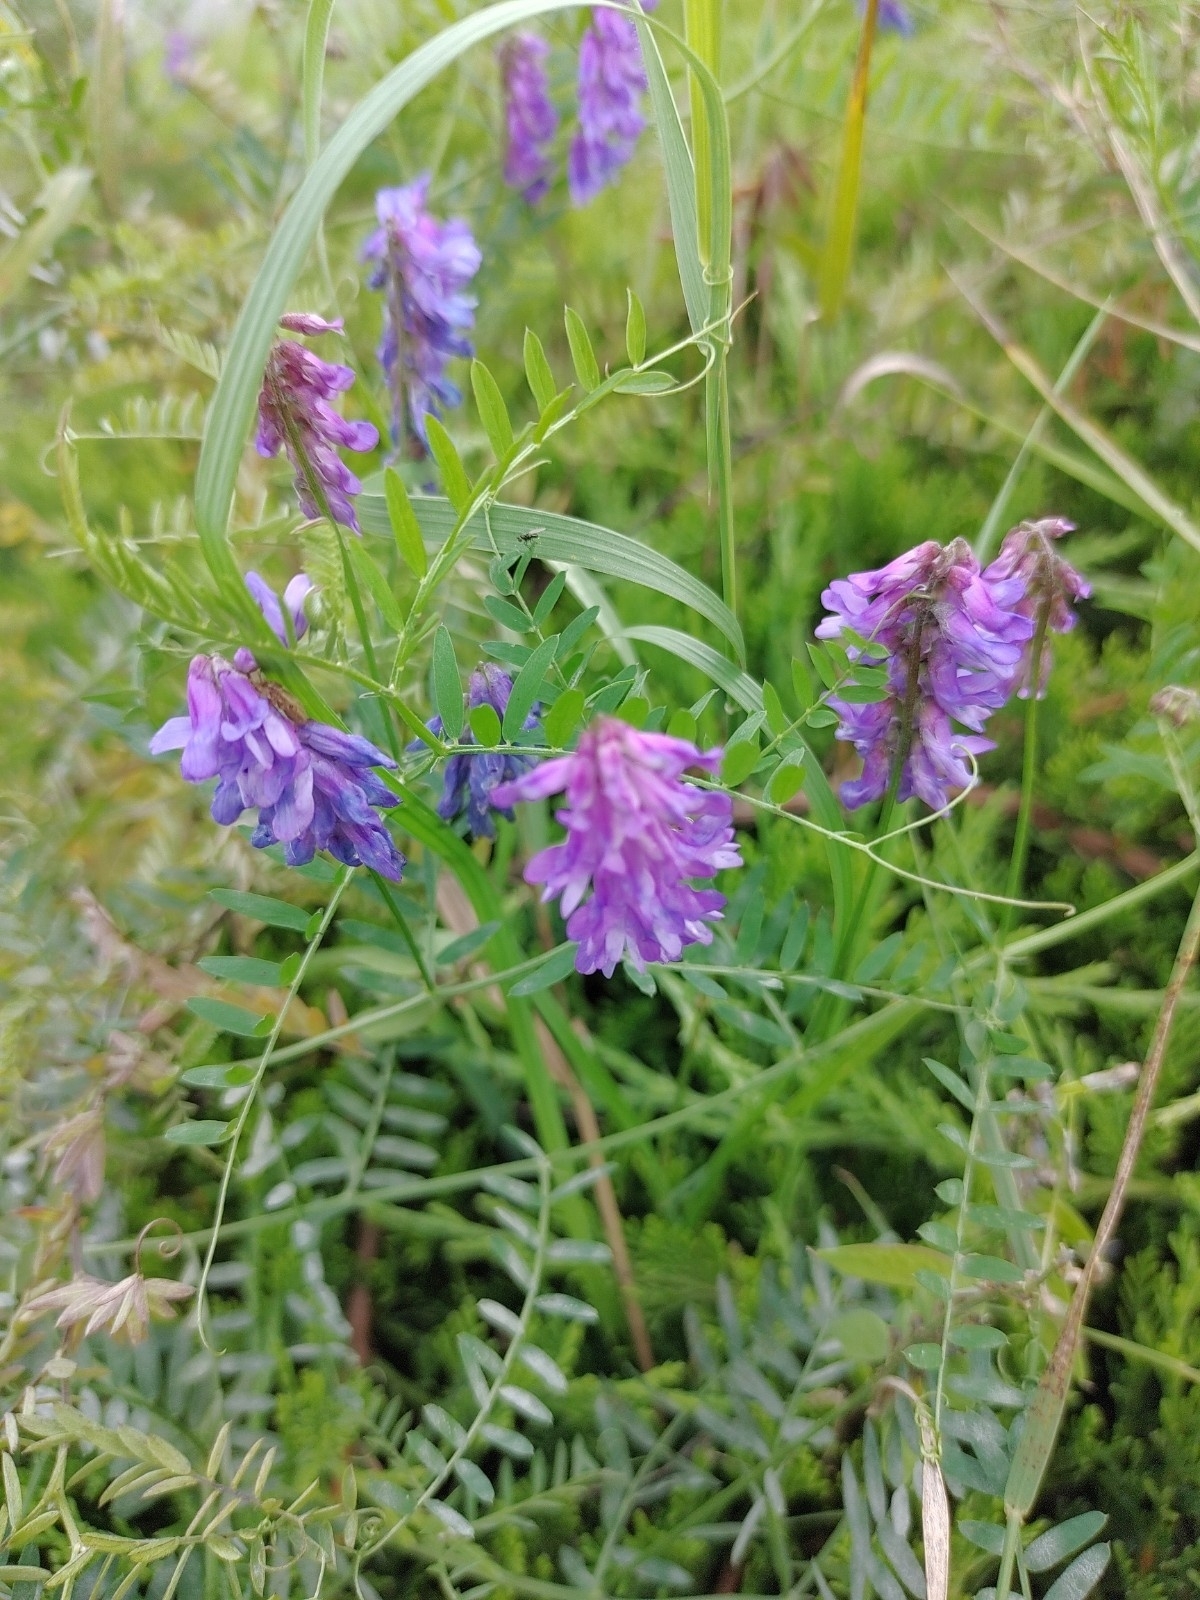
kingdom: Plantae
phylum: Tracheophyta
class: Magnoliopsida
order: Fabales
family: Fabaceae
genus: Vicia
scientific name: Vicia cracca
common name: Bird vetch
